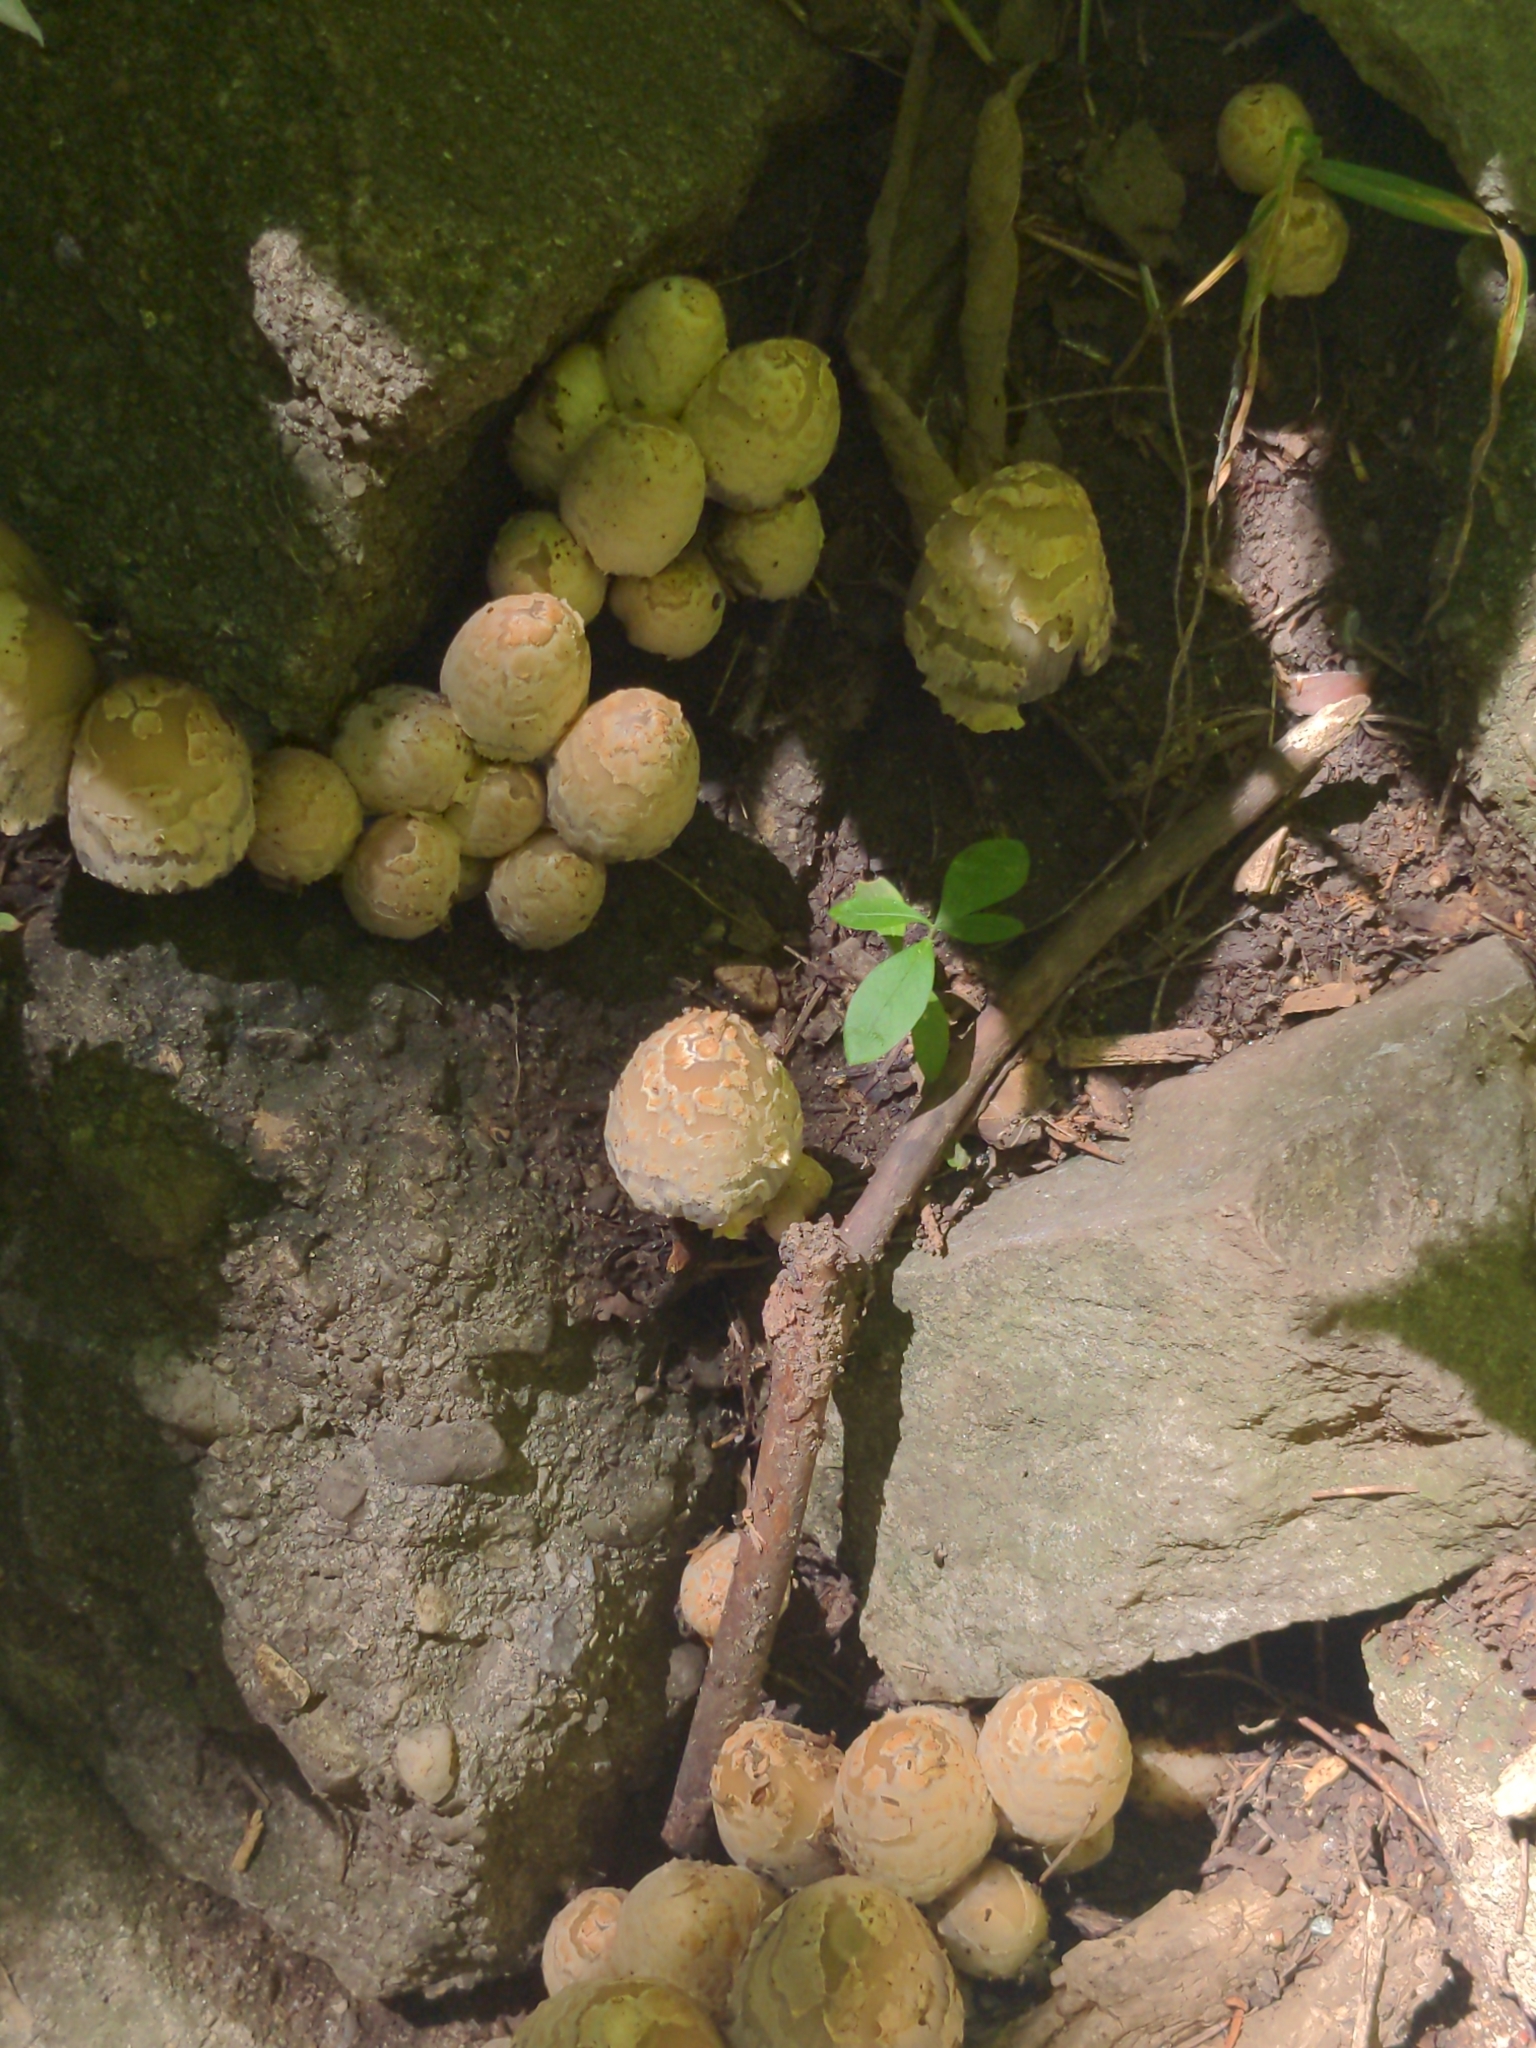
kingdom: Fungi
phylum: Basidiomycota
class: Agaricomycetes
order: Agaricales
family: Psathyrellaceae
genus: Coprinopsis
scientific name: Coprinopsis variegata
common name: Scaly ink cap
